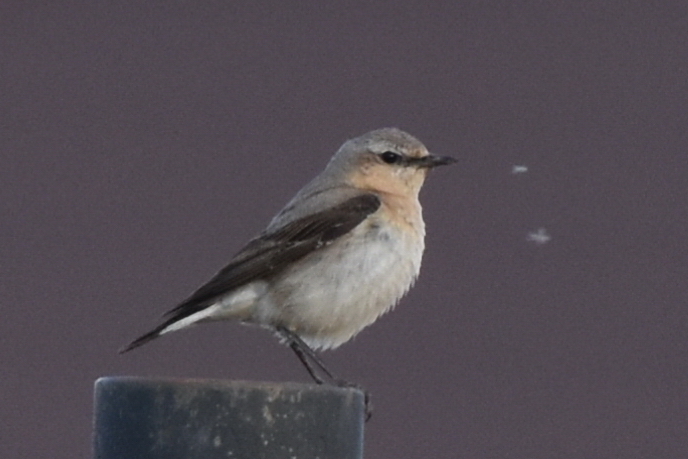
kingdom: Animalia
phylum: Chordata
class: Aves
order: Passeriformes
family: Muscicapidae
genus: Oenanthe
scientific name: Oenanthe oenanthe
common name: Northern wheatear
